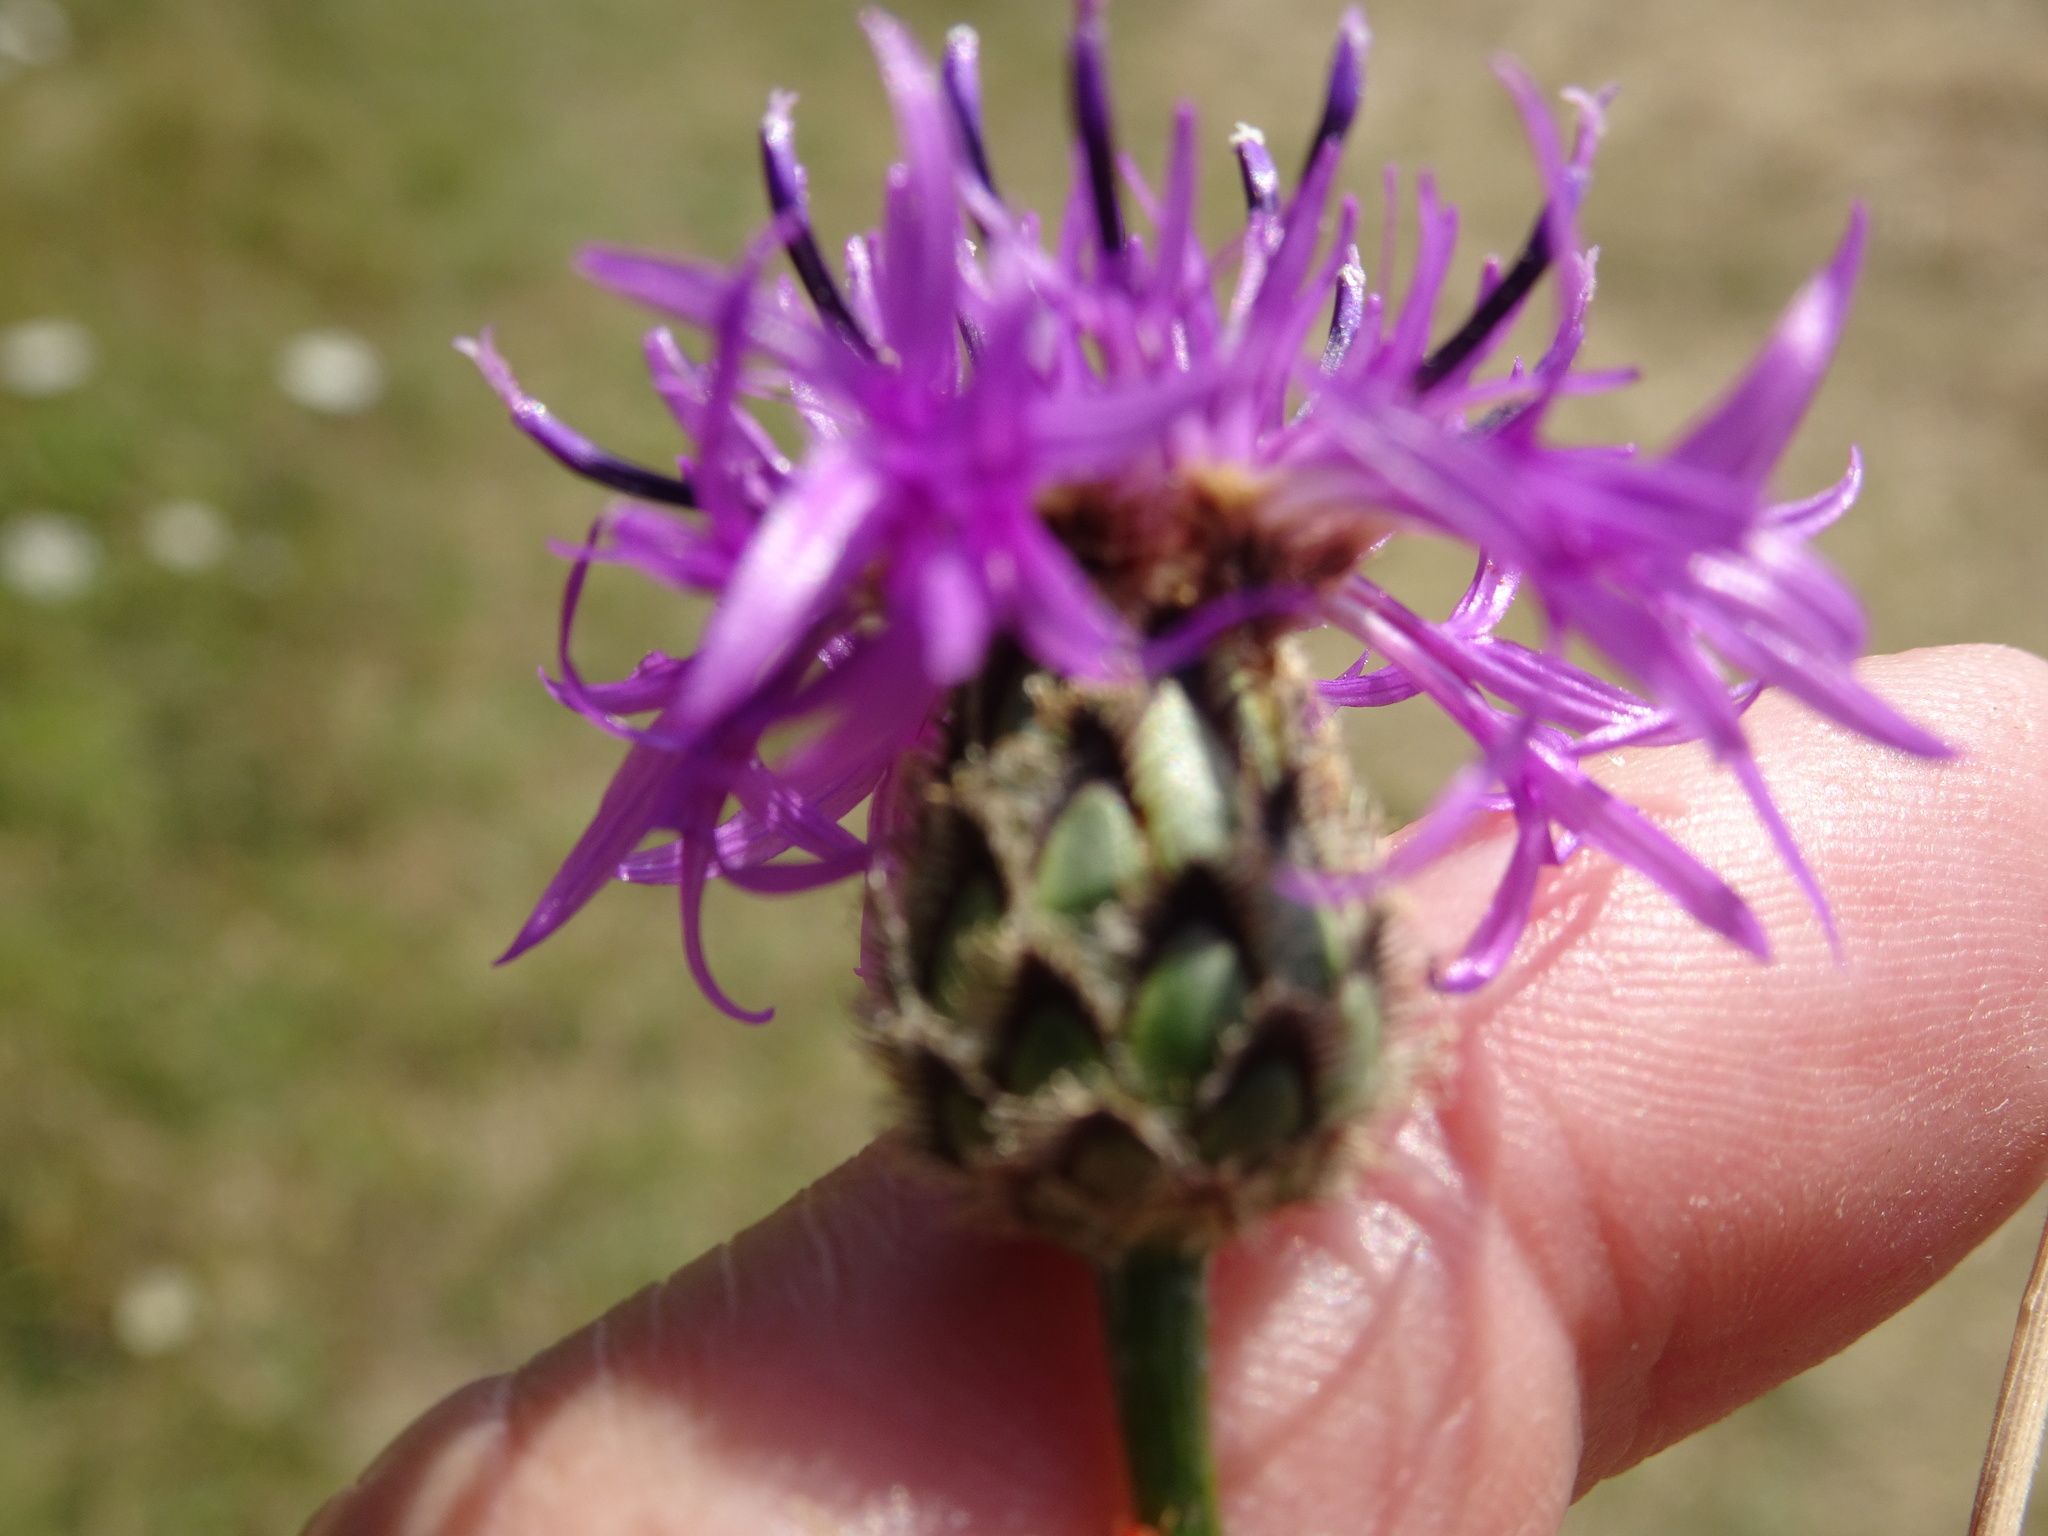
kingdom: Plantae
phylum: Tracheophyta
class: Magnoliopsida
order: Asterales
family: Asteraceae
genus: Centaurea
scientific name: Centaurea scabiosa
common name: Greater knapweed
